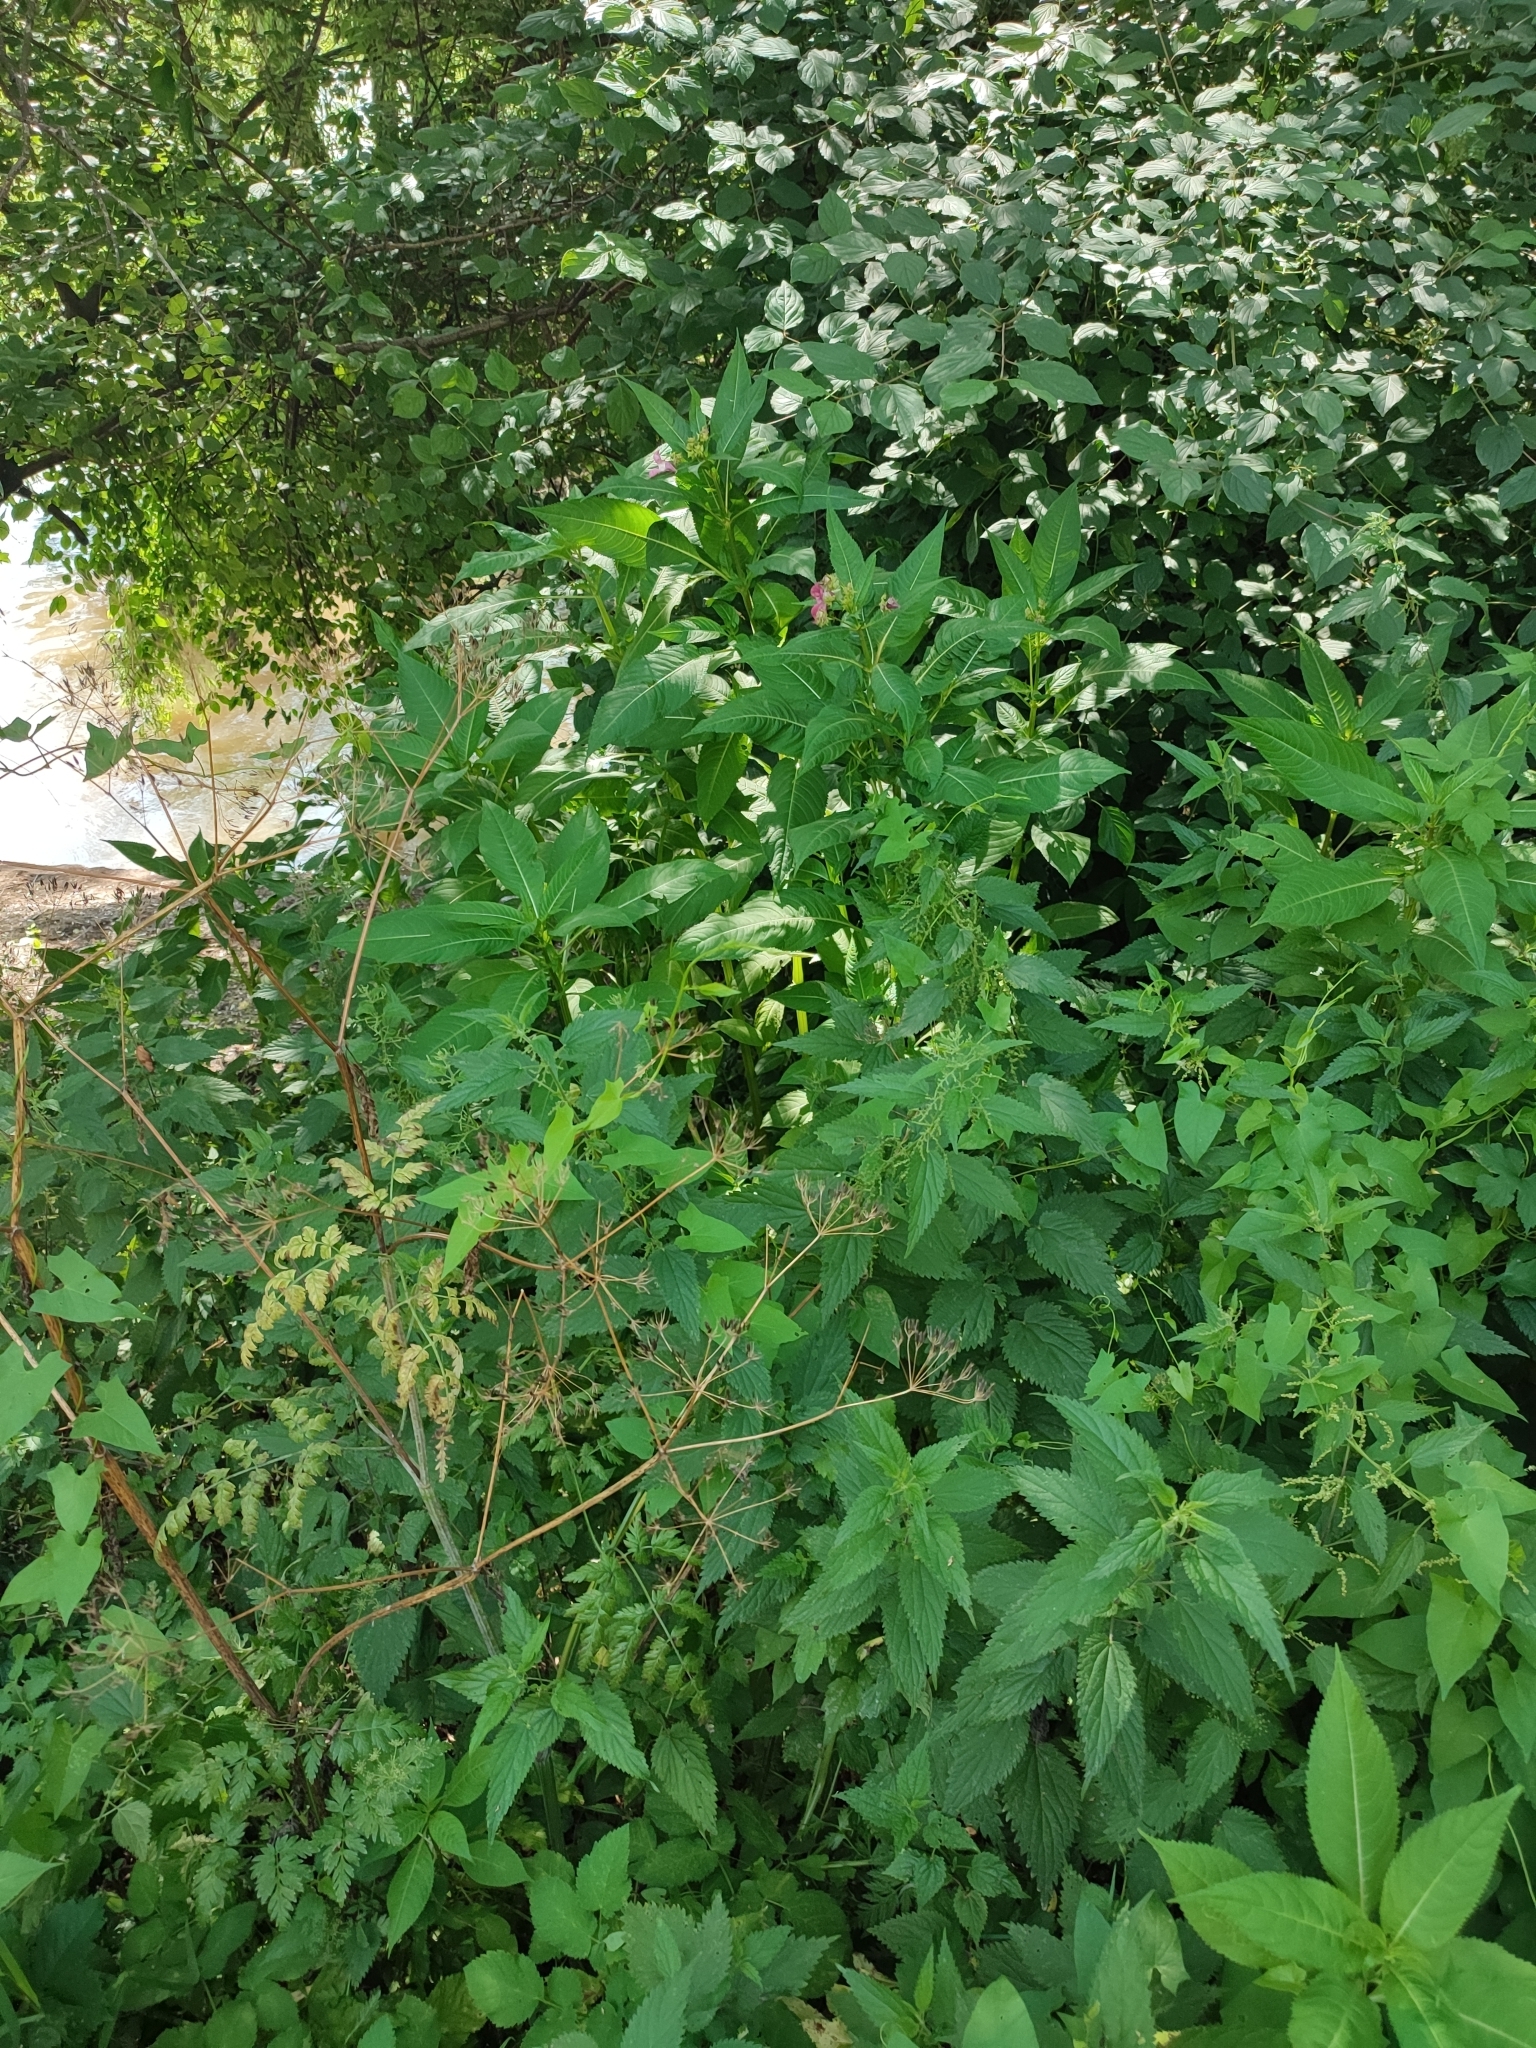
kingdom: Plantae
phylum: Tracheophyta
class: Magnoliopsida
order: Ericales
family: Balsaminaceae
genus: Impatiens
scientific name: Impatiens glandulifera
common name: Himalayan balsam
